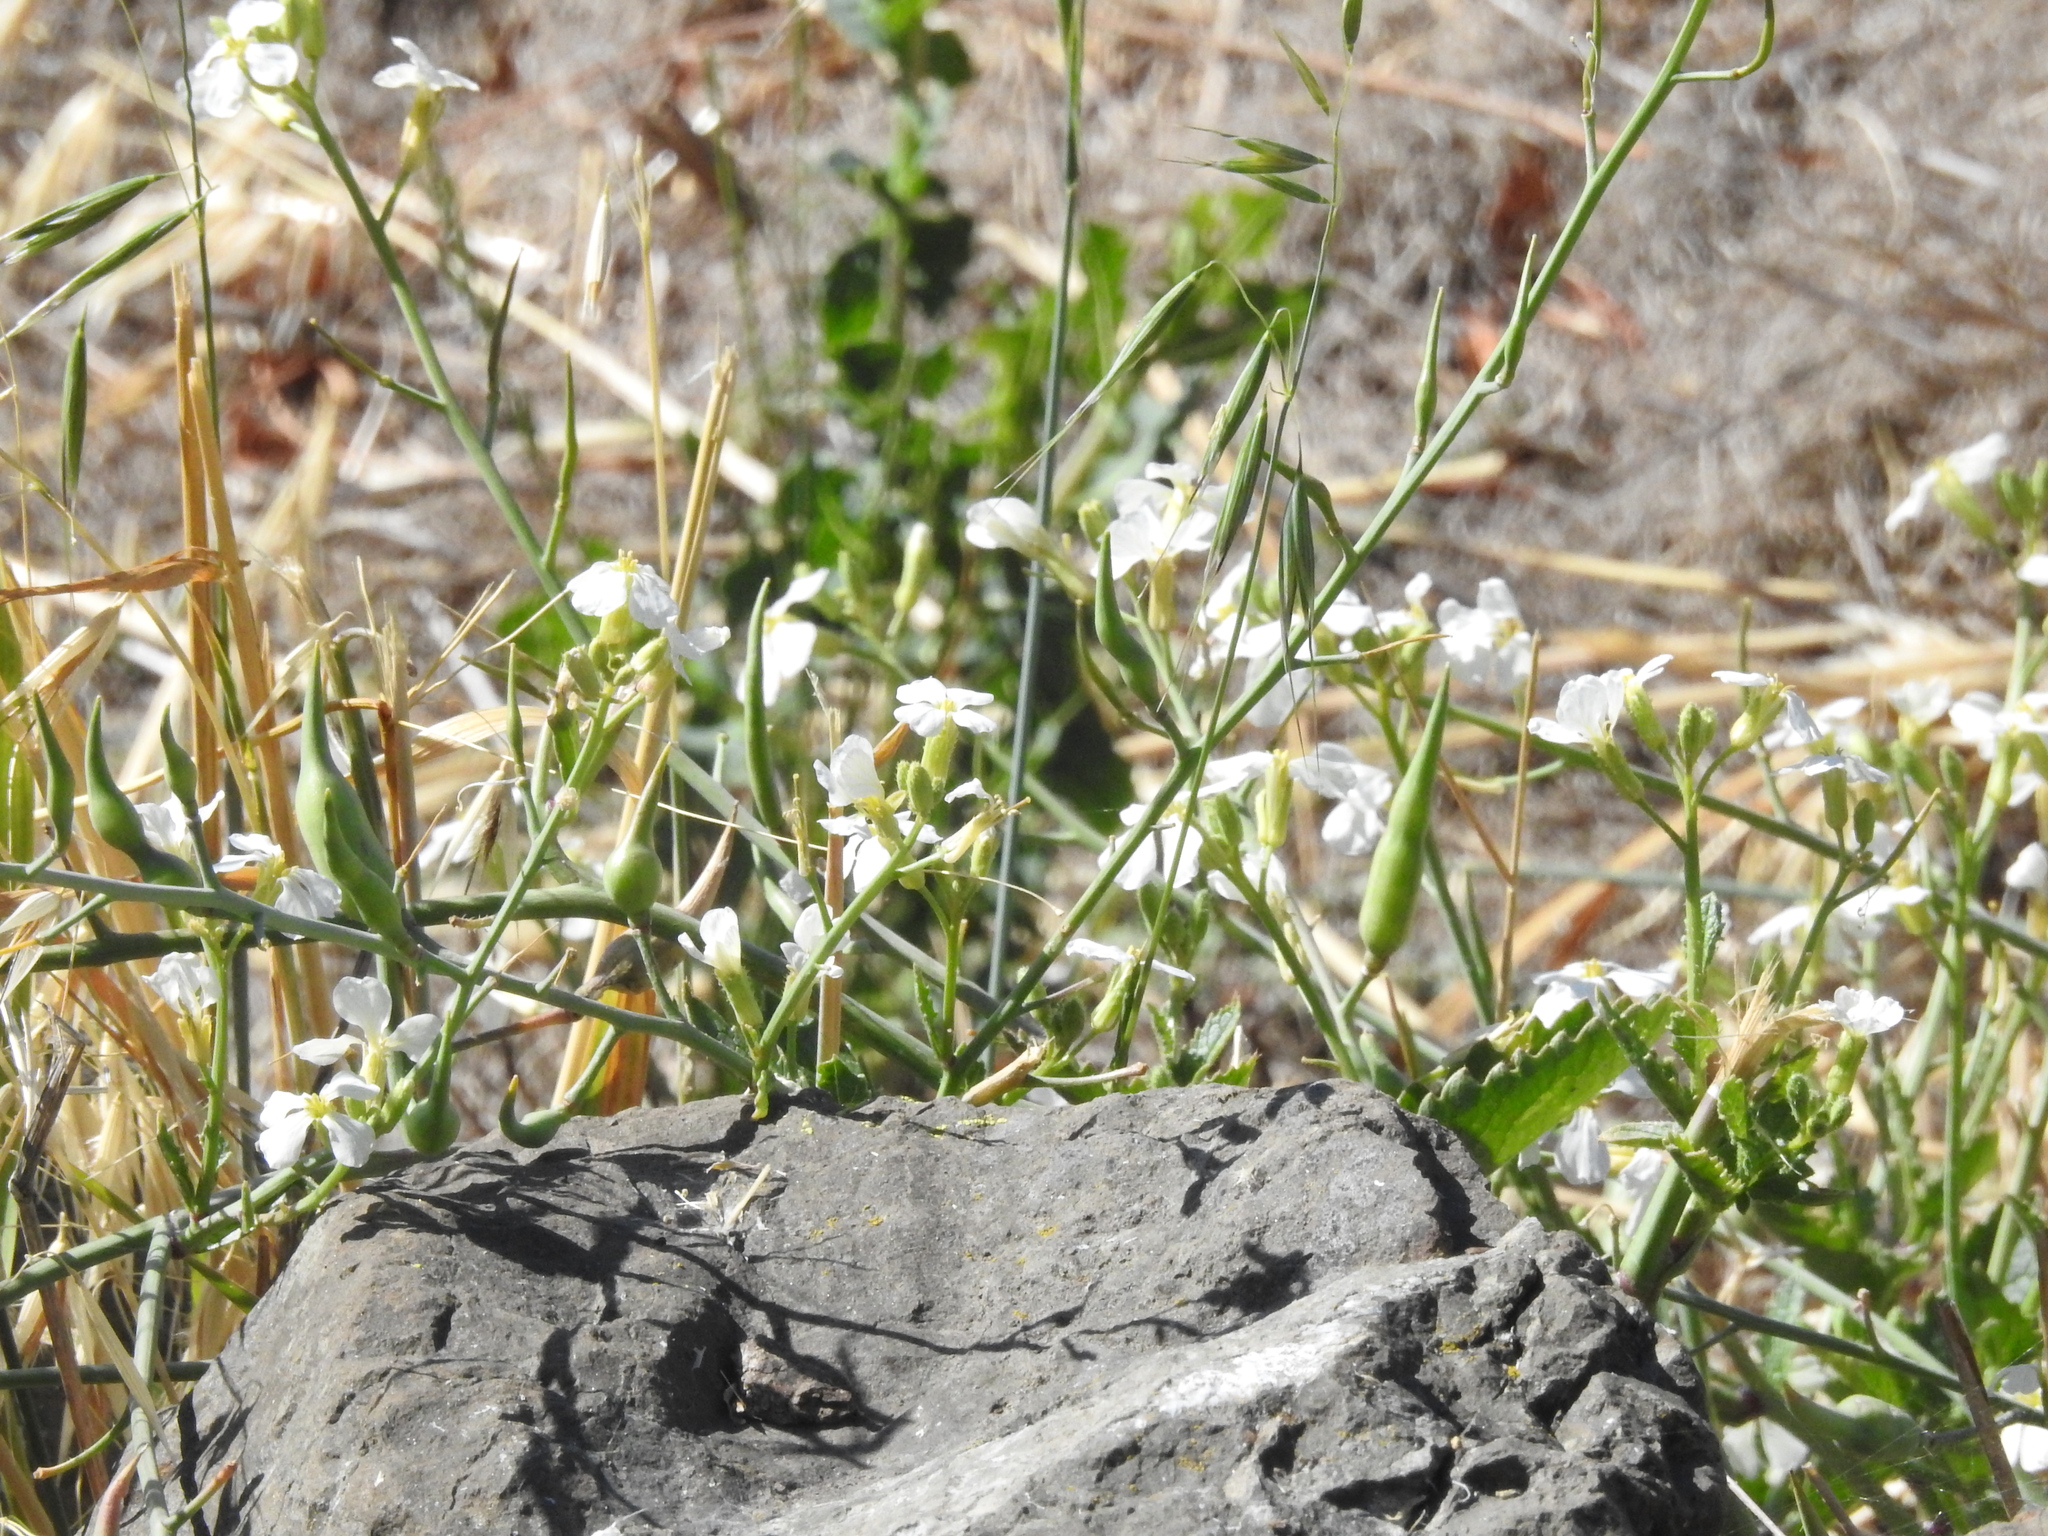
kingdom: Plantae
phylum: Tracheophyta
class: Magnoliopsida
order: Brassicales
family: Brassicaceae
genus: Raphanus
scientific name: Raphanus sativus
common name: Cultivated radish
